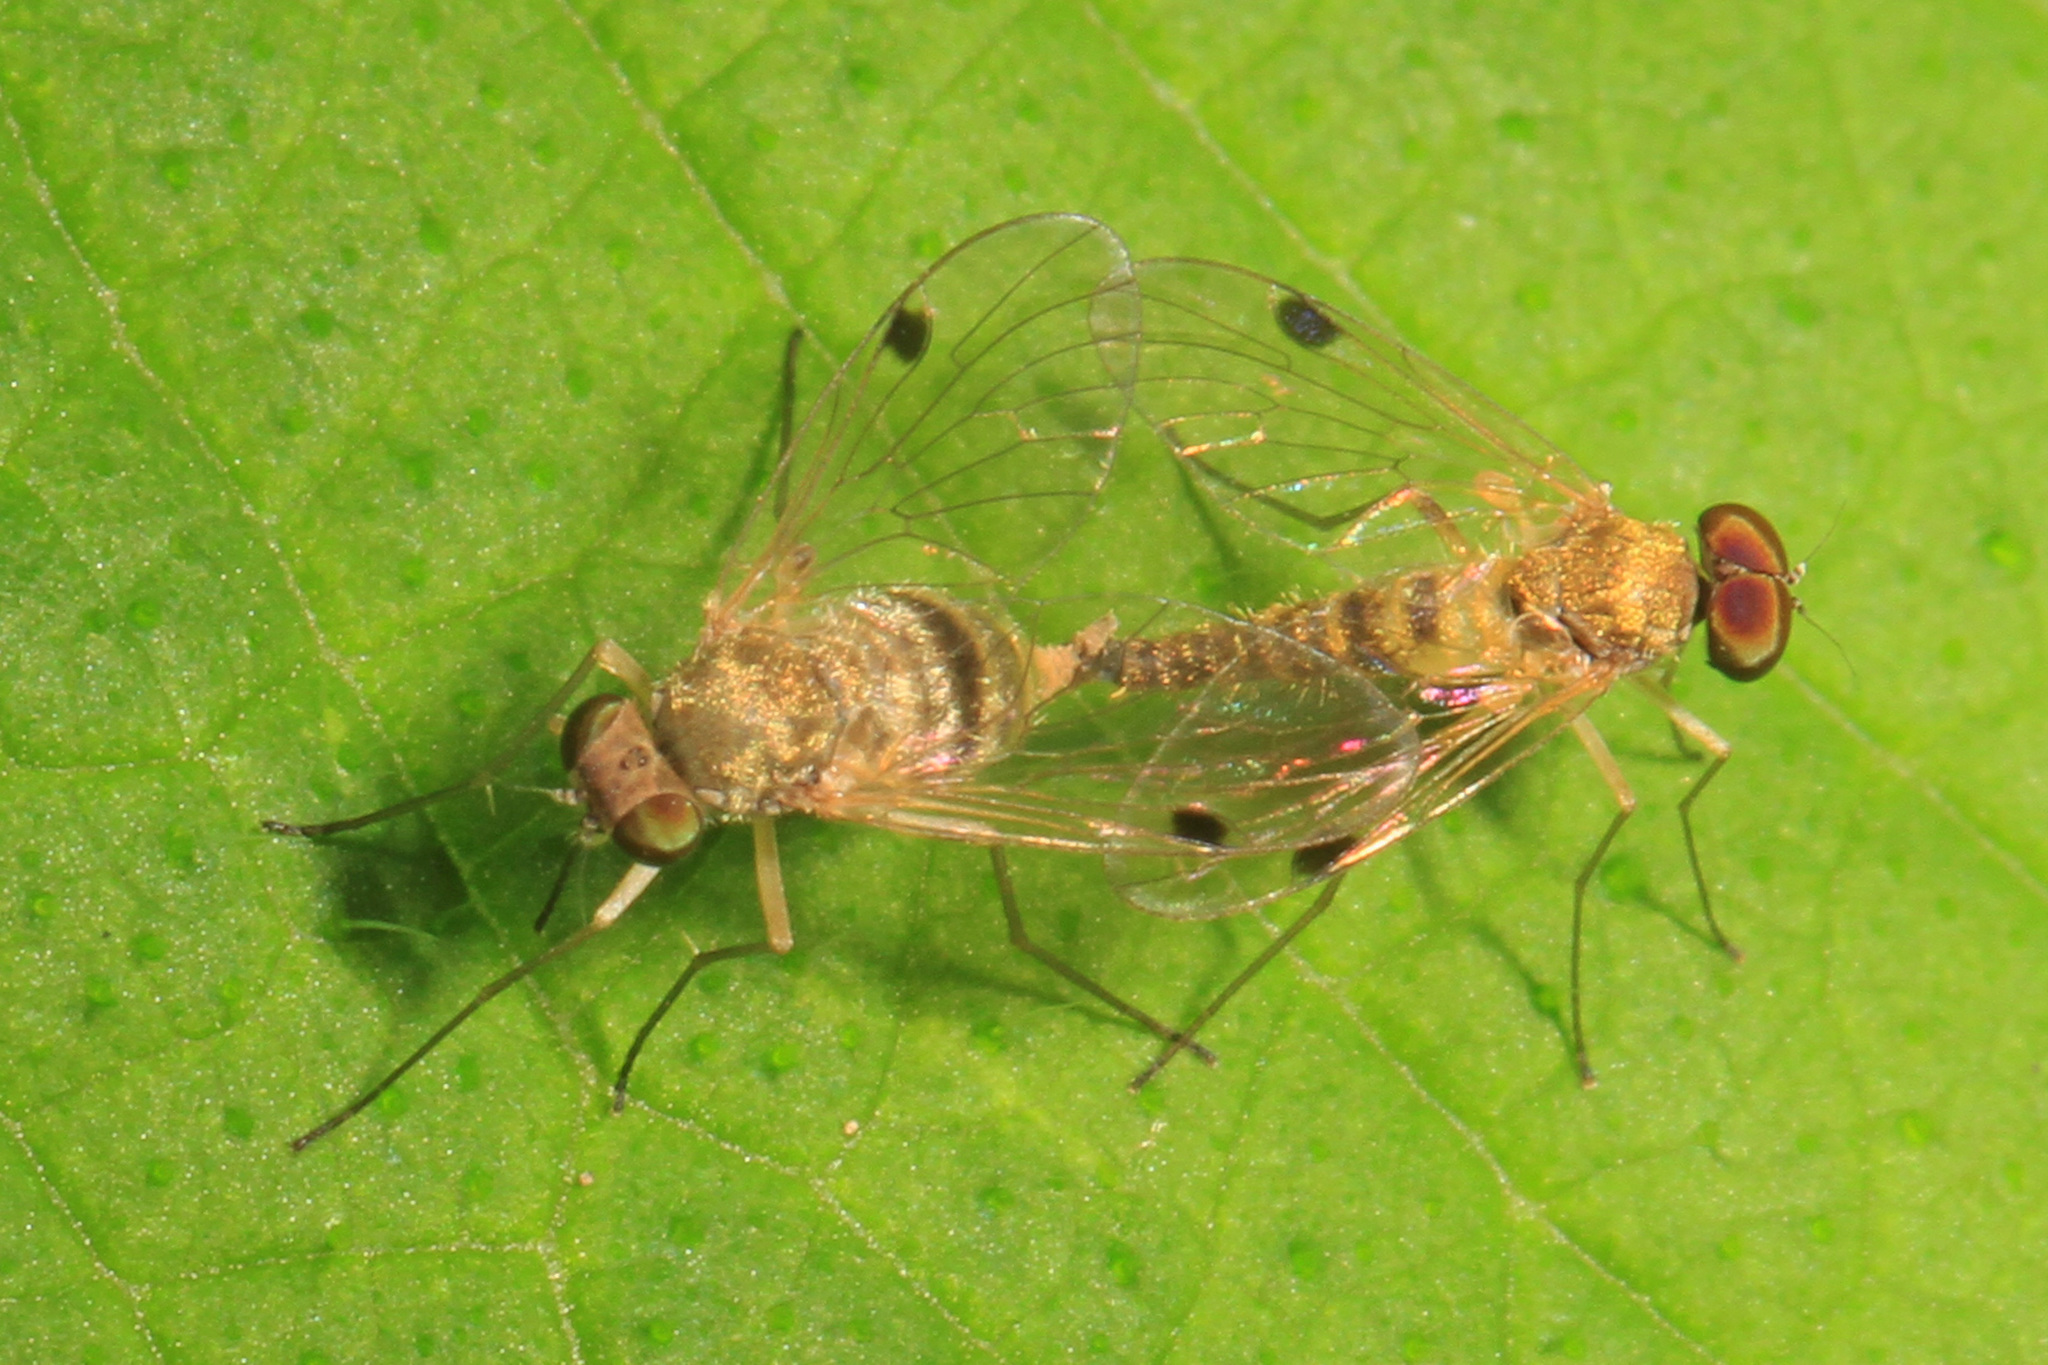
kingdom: Animalia
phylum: Arthropoda
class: Insecta
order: Diptera
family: Rhagionidae
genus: Chrysopilus
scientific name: Chrysopilus modestus
